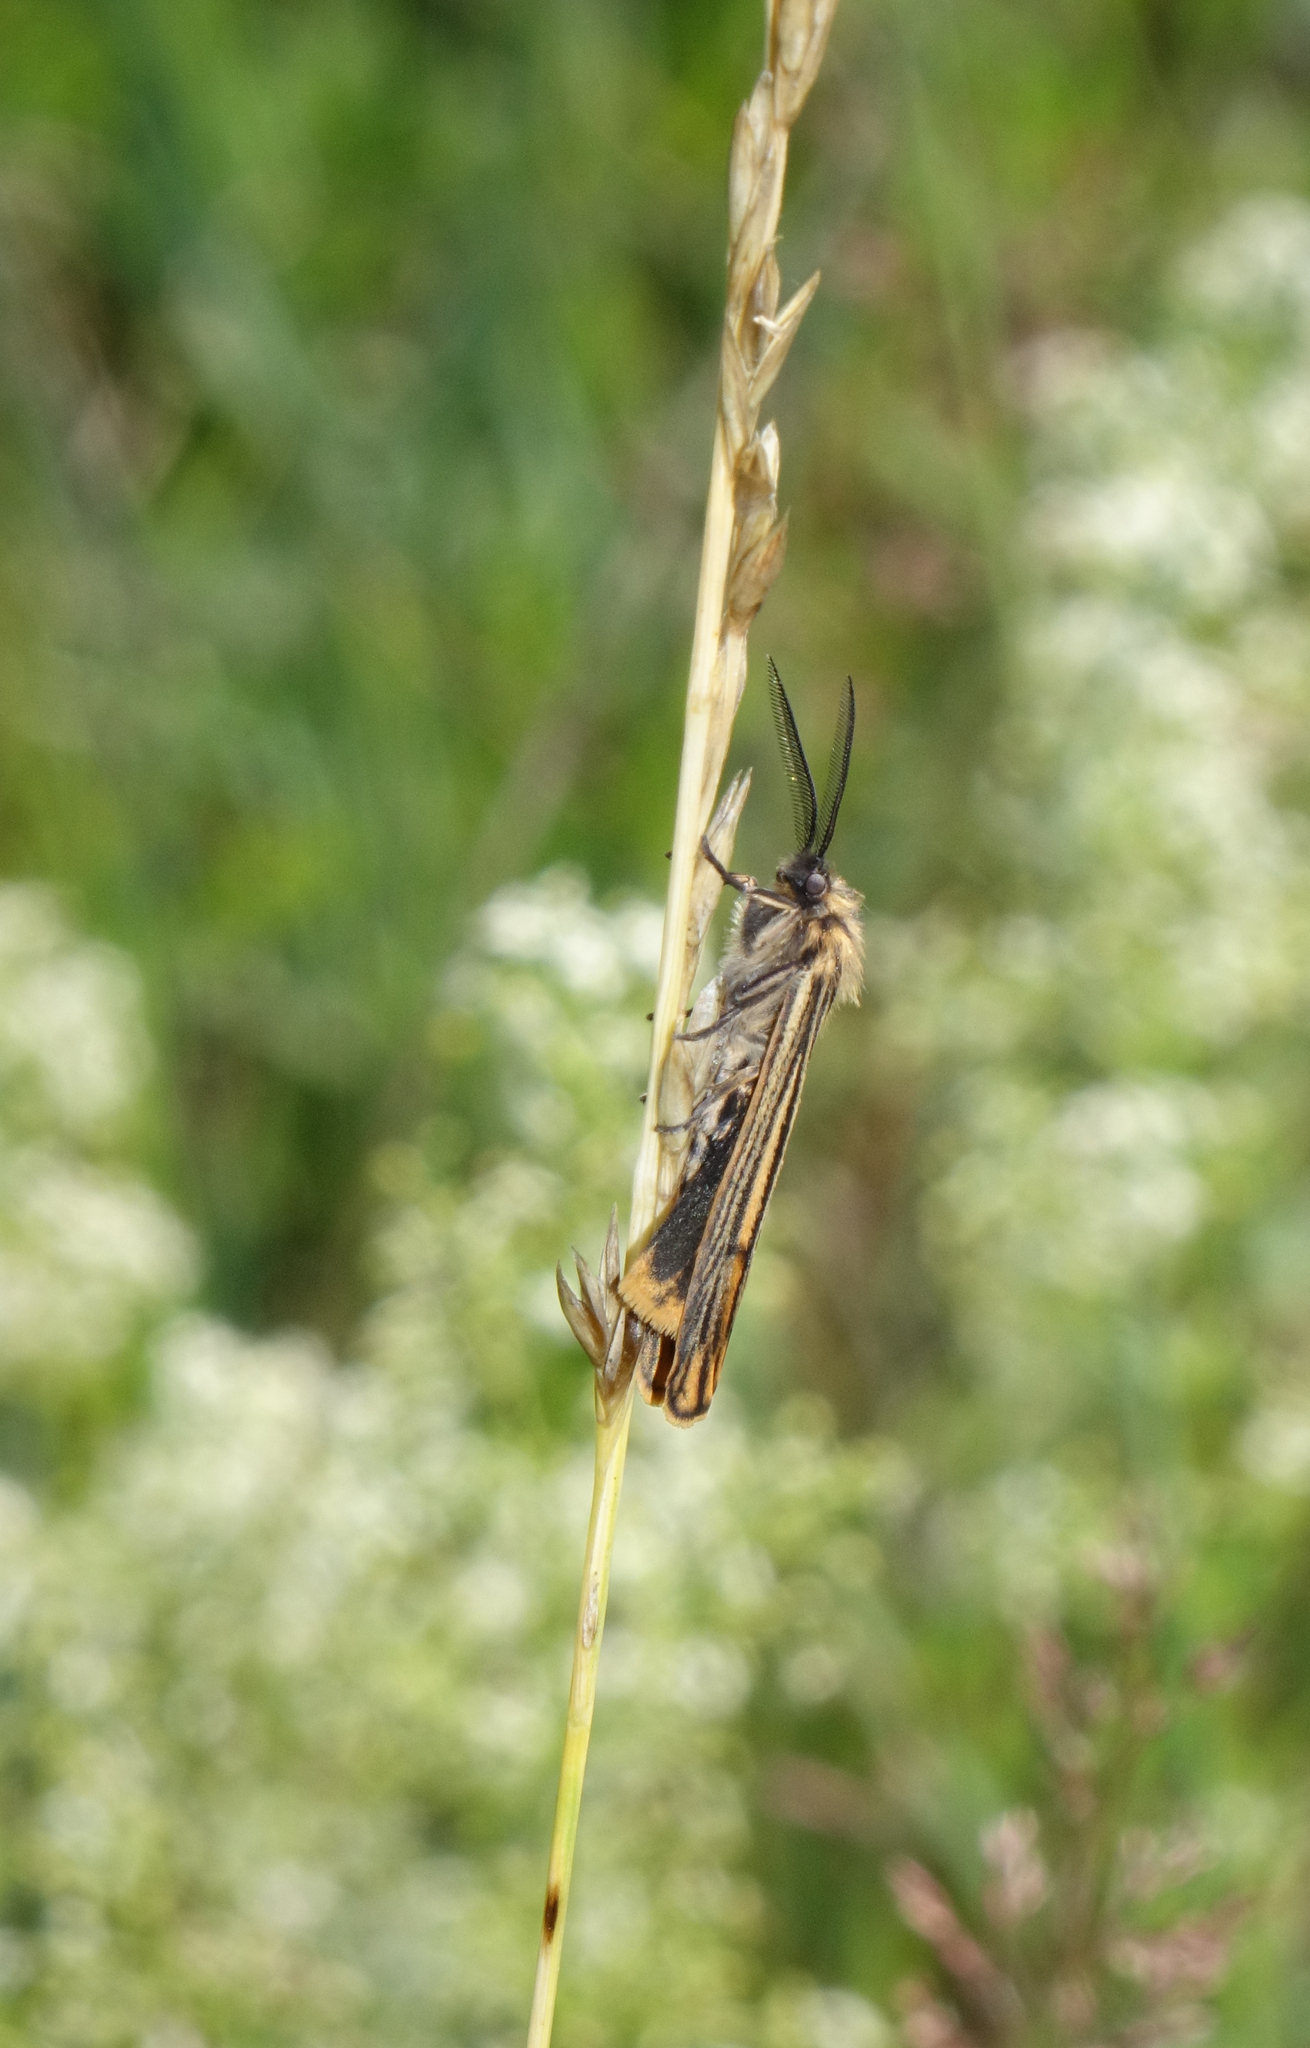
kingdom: Animalia
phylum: Arthropoda
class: Insecta
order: Lepidoptera
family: Erebidae
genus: Coscinia
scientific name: Coscinia Spiris striata
